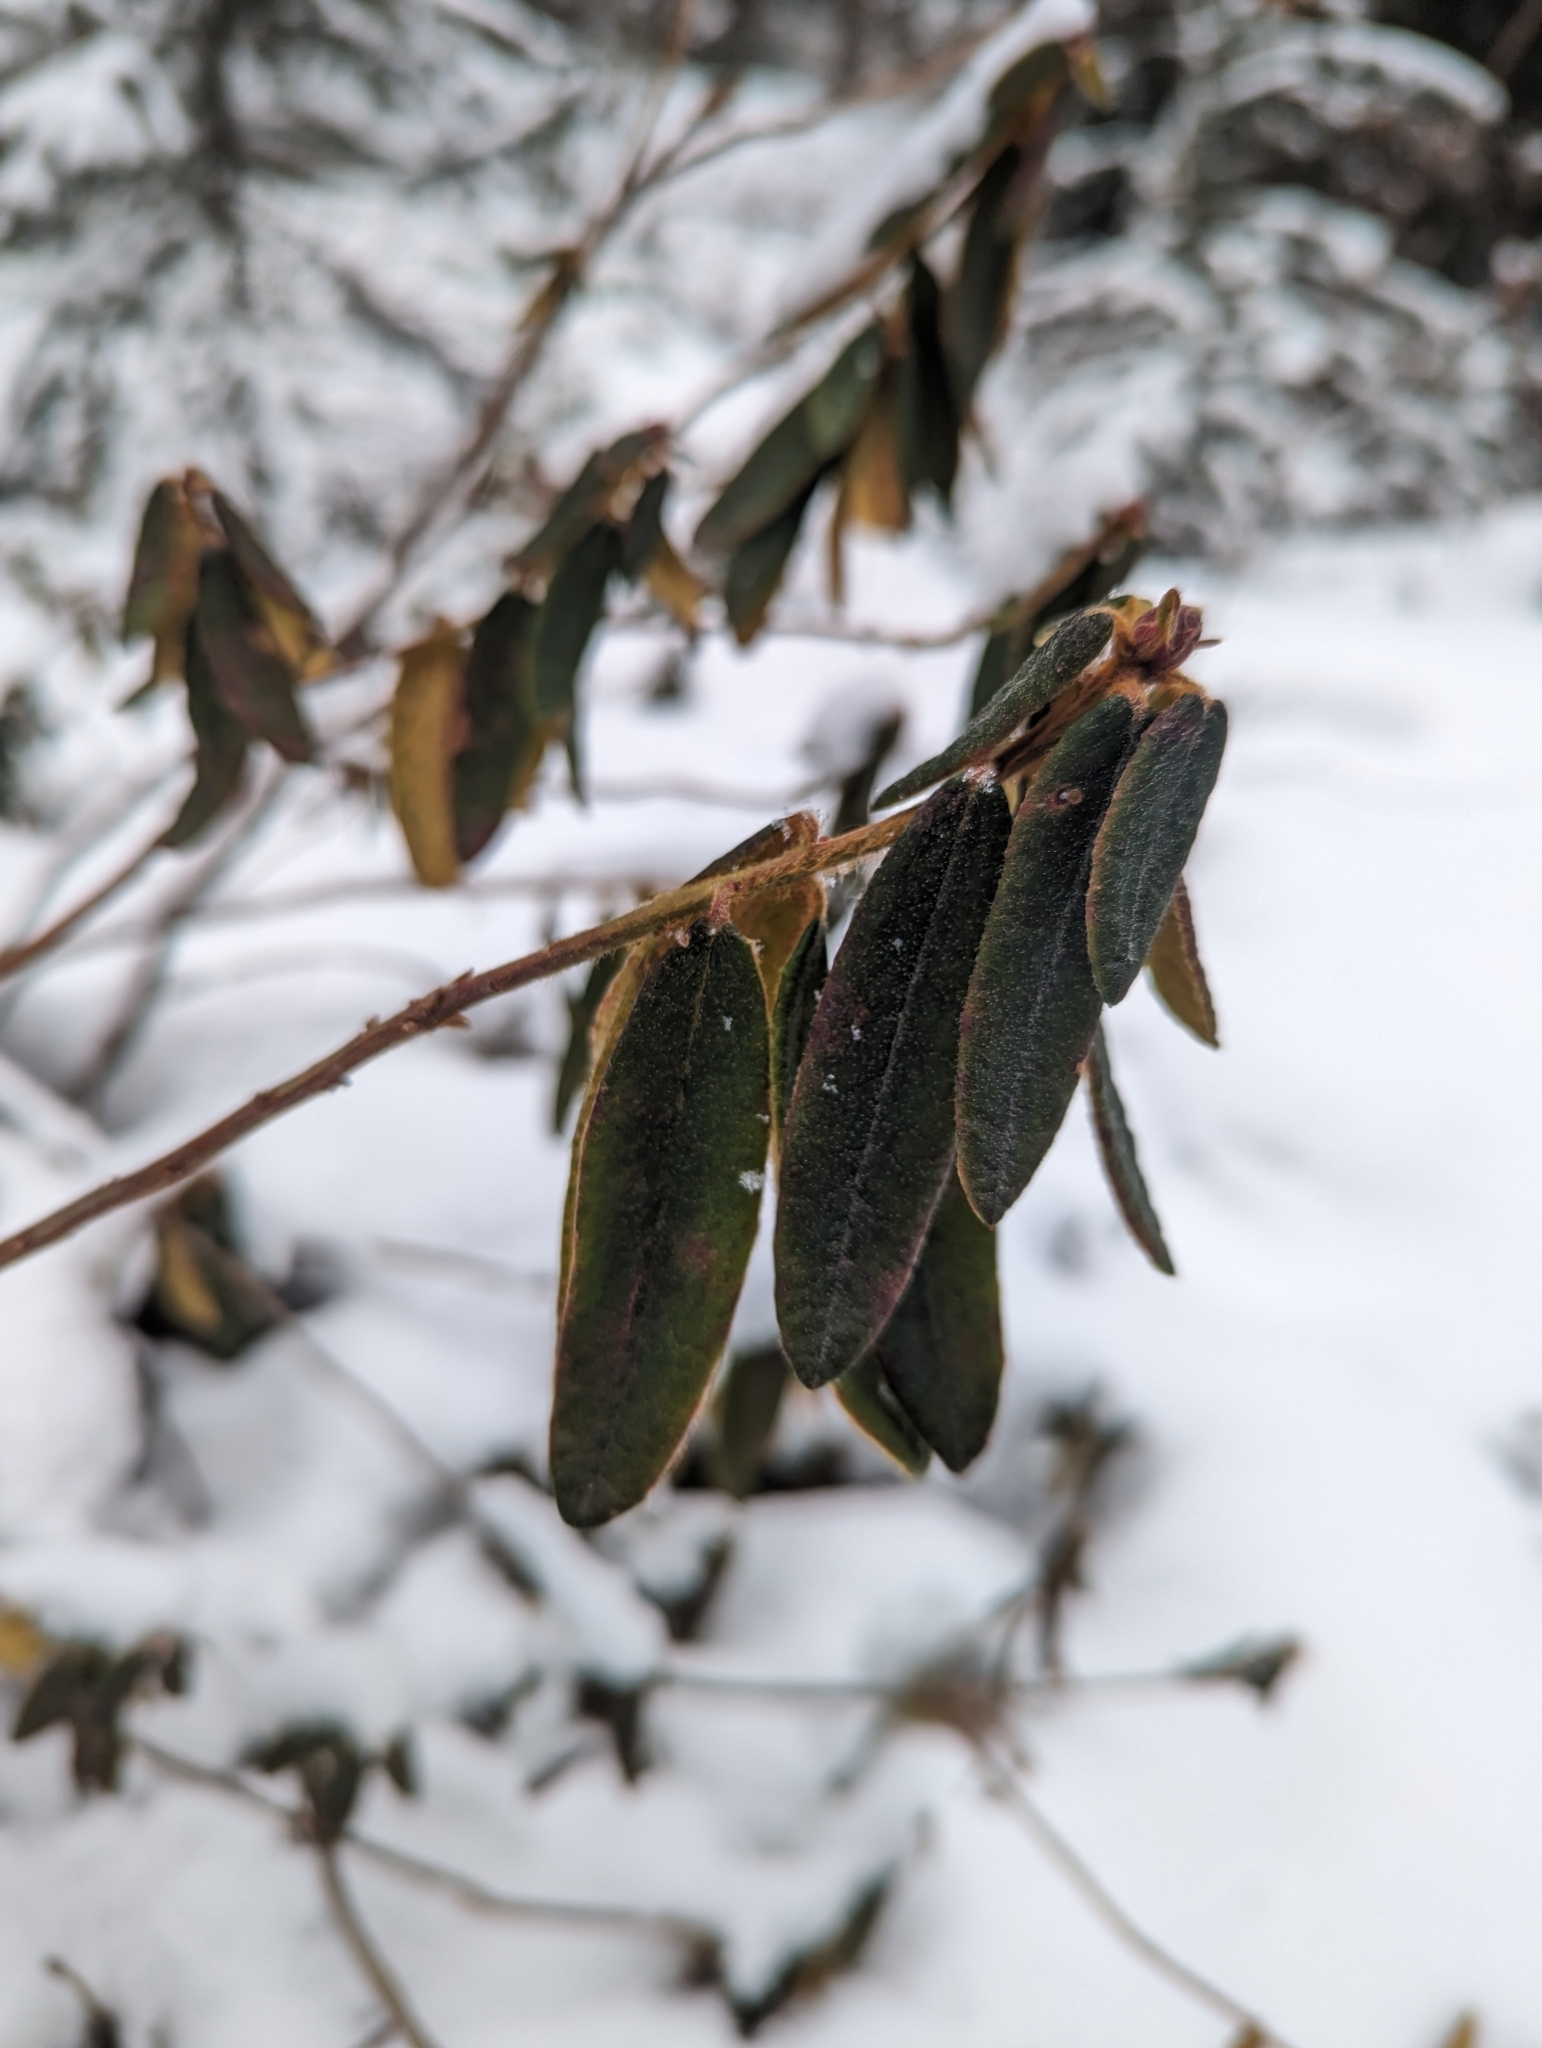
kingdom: Plantae
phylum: Tracheophyta
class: Magnoliopsida
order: Ericales
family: Ericaceae
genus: Rhododendron
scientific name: Rhododendron groenlandicum
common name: Bog labrador tea
